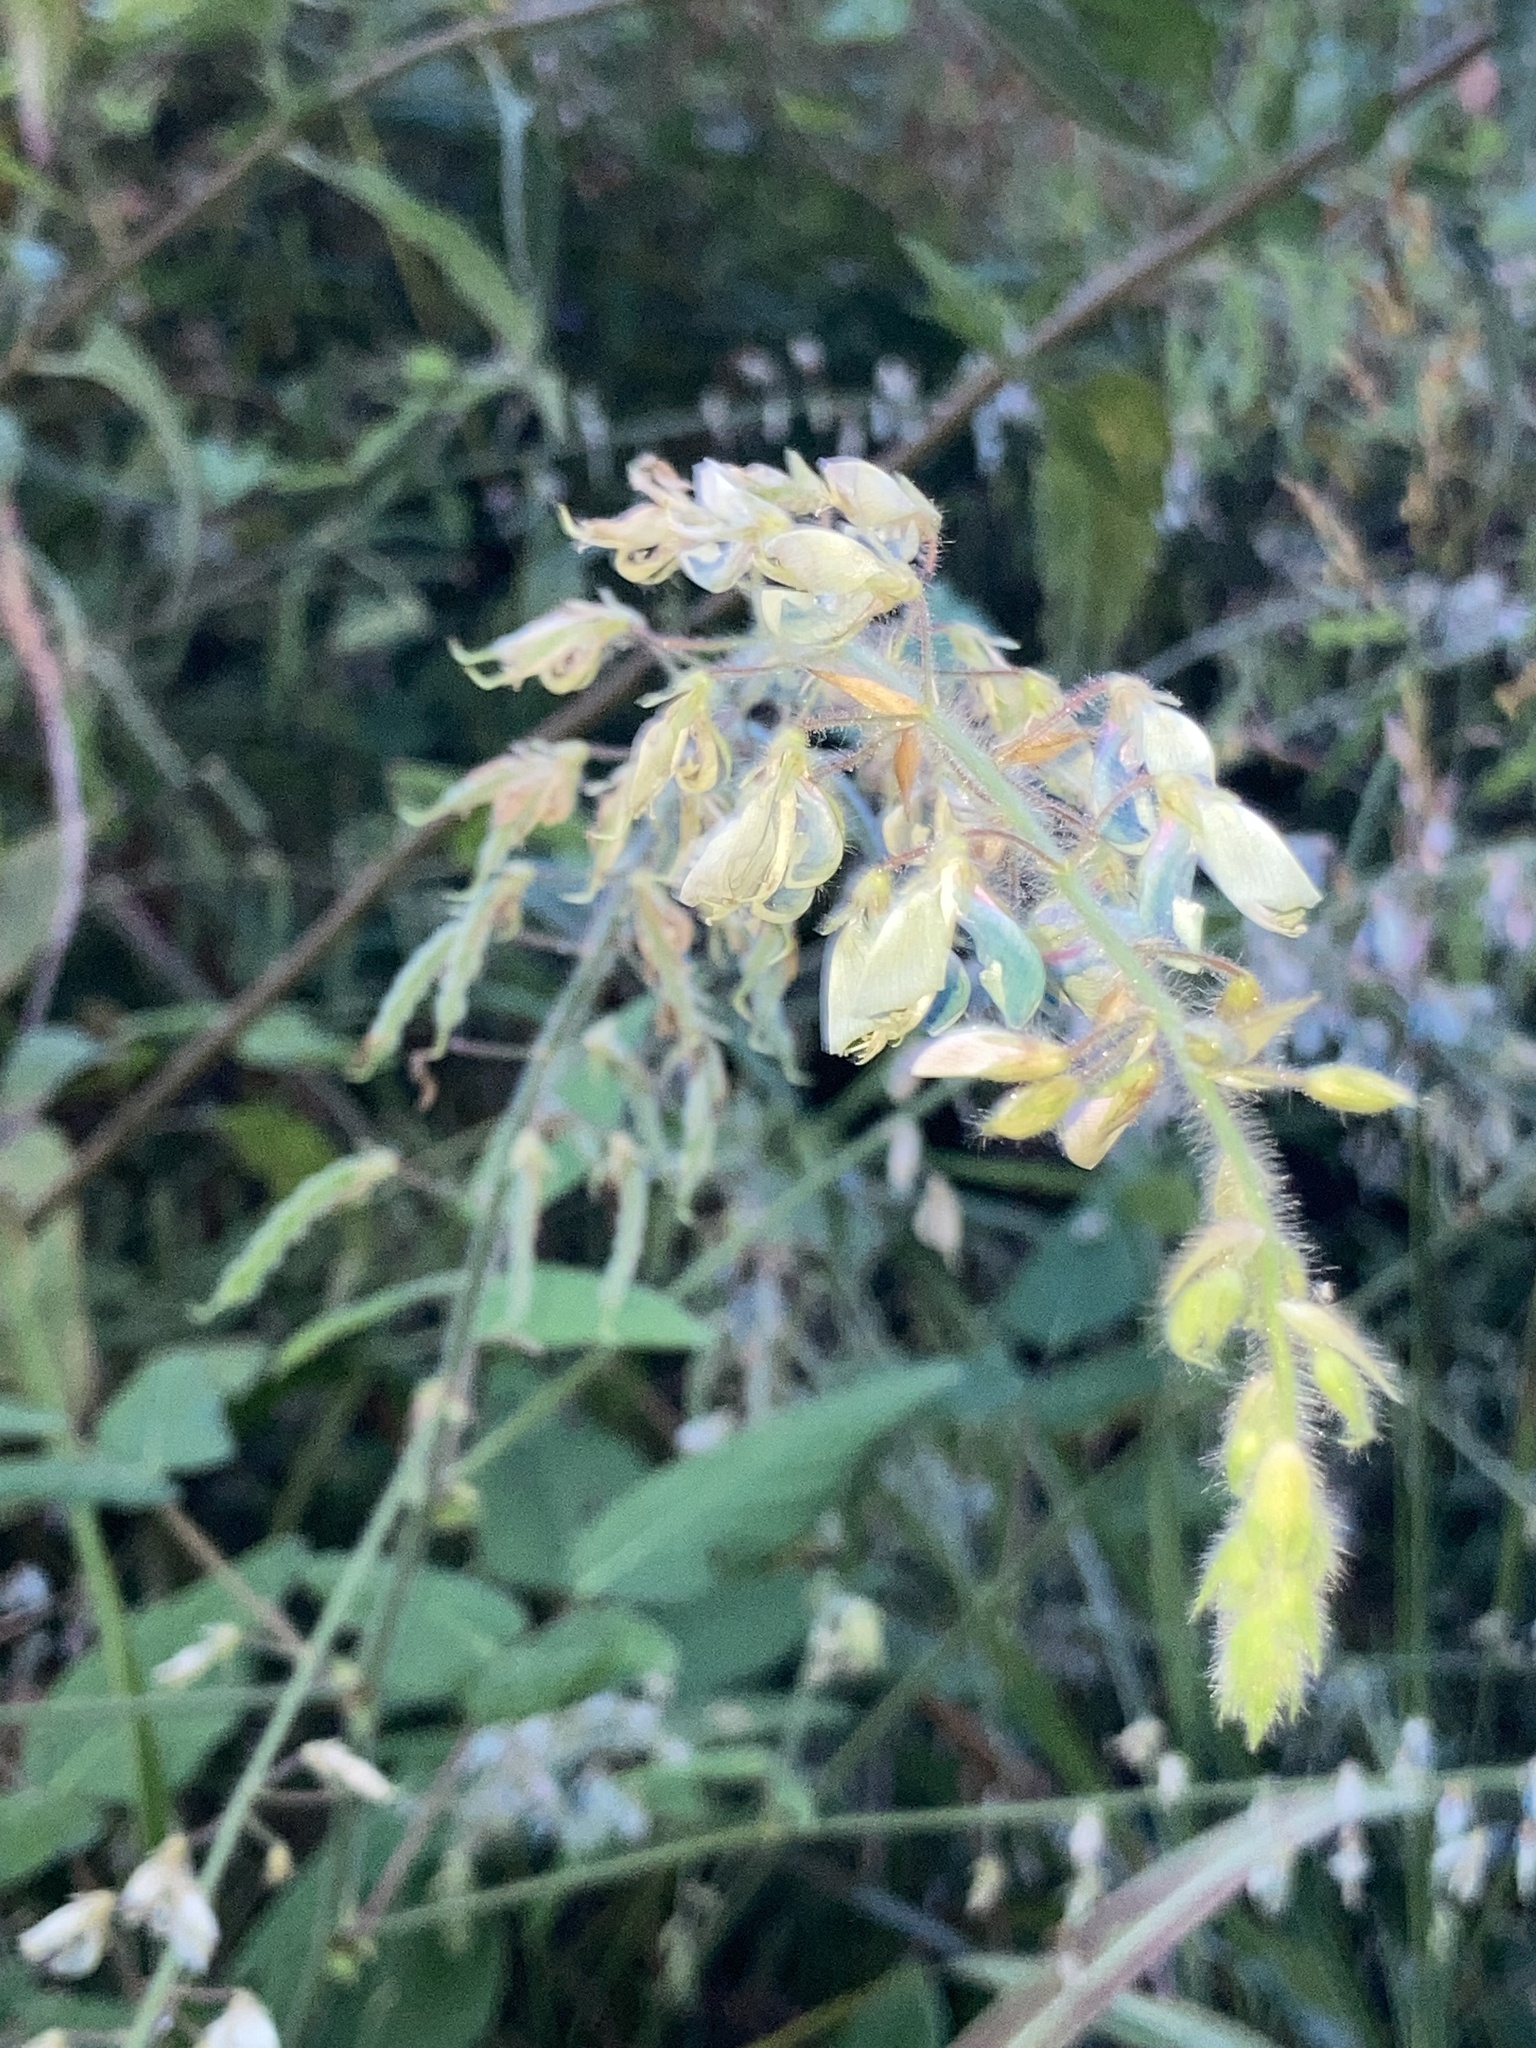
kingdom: Plantae
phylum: Tracheophyta
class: Magnoliopsida
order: Fabales
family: Fabaceae
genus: Desmodium
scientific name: Desmodium canescens
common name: Hoary tick-clover
